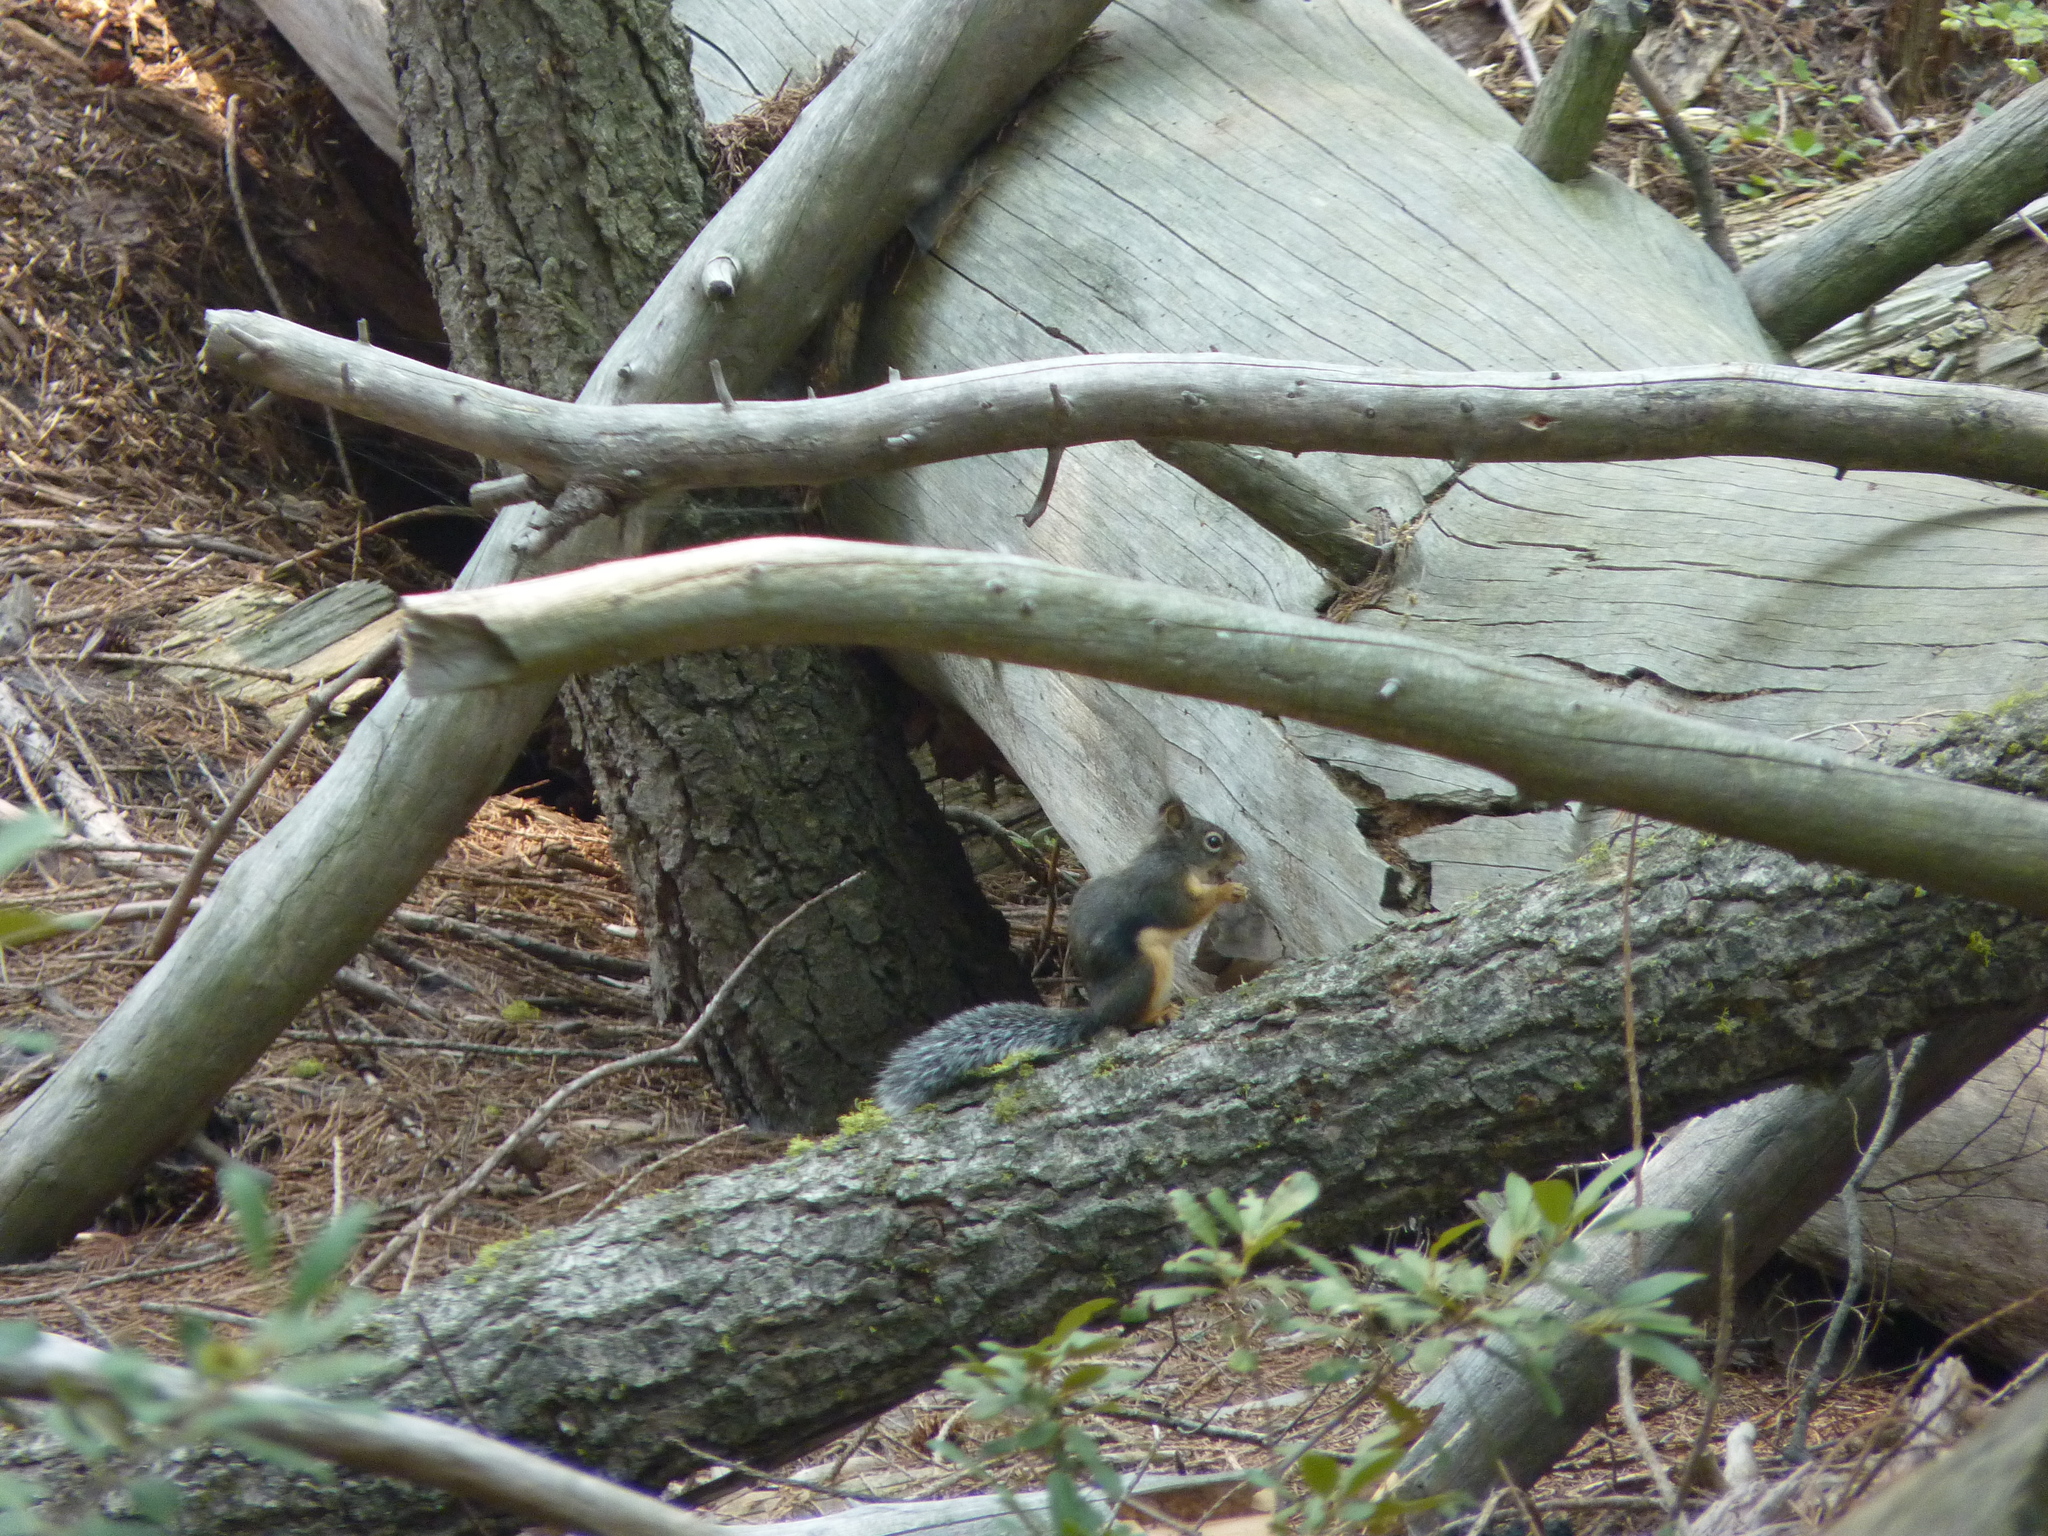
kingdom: Animalia
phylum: Chordata
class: Mammalia
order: Rodentia
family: Sciuridae
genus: Tamiasciurus
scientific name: Tamiasciurus douglasii
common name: Douglas's squirrel
